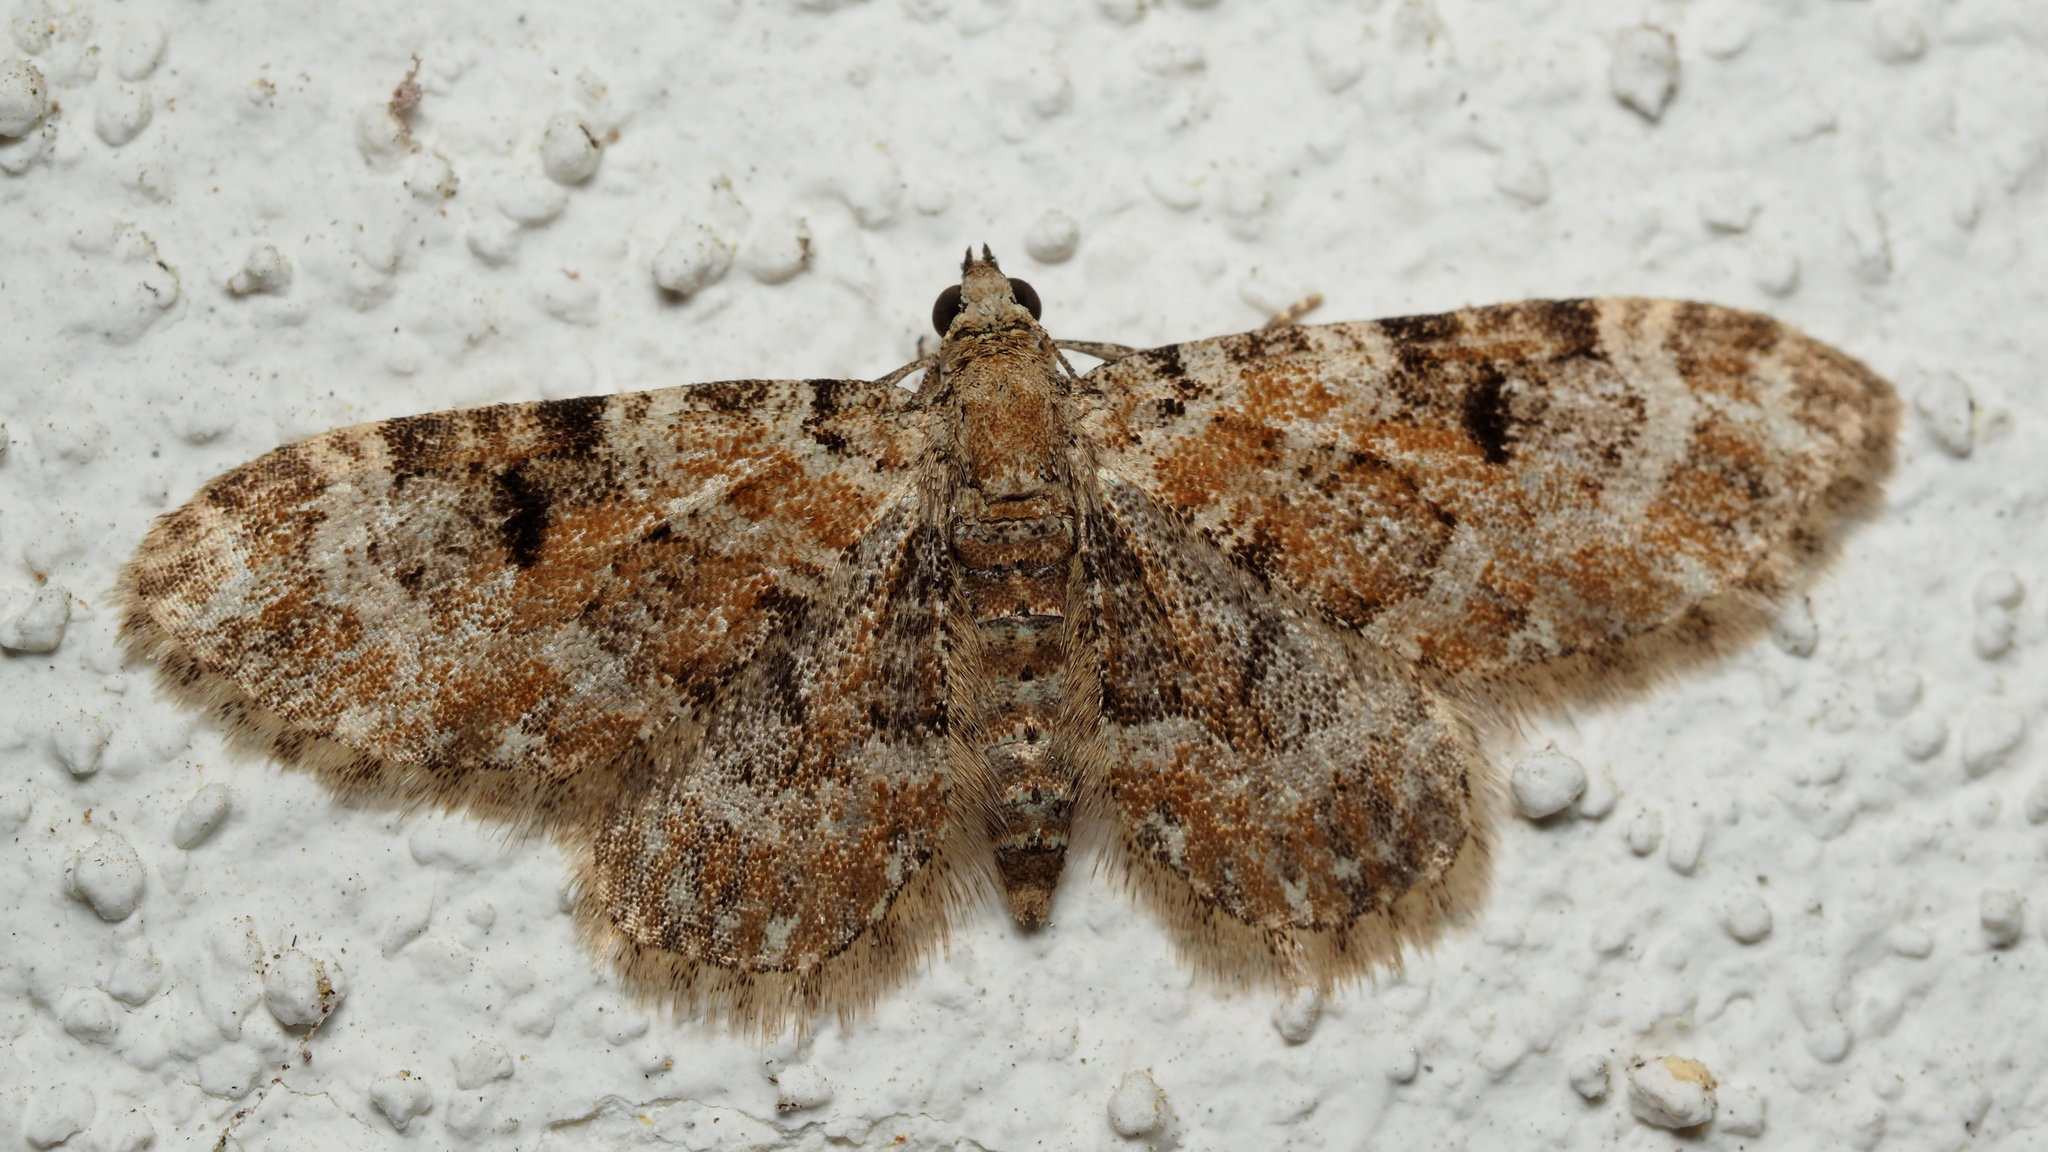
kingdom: Animalia
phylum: Arthropoda
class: Insecta
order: Lepidoptera
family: Geometridae
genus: Eupithecia
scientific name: Eupithecia pantellata
